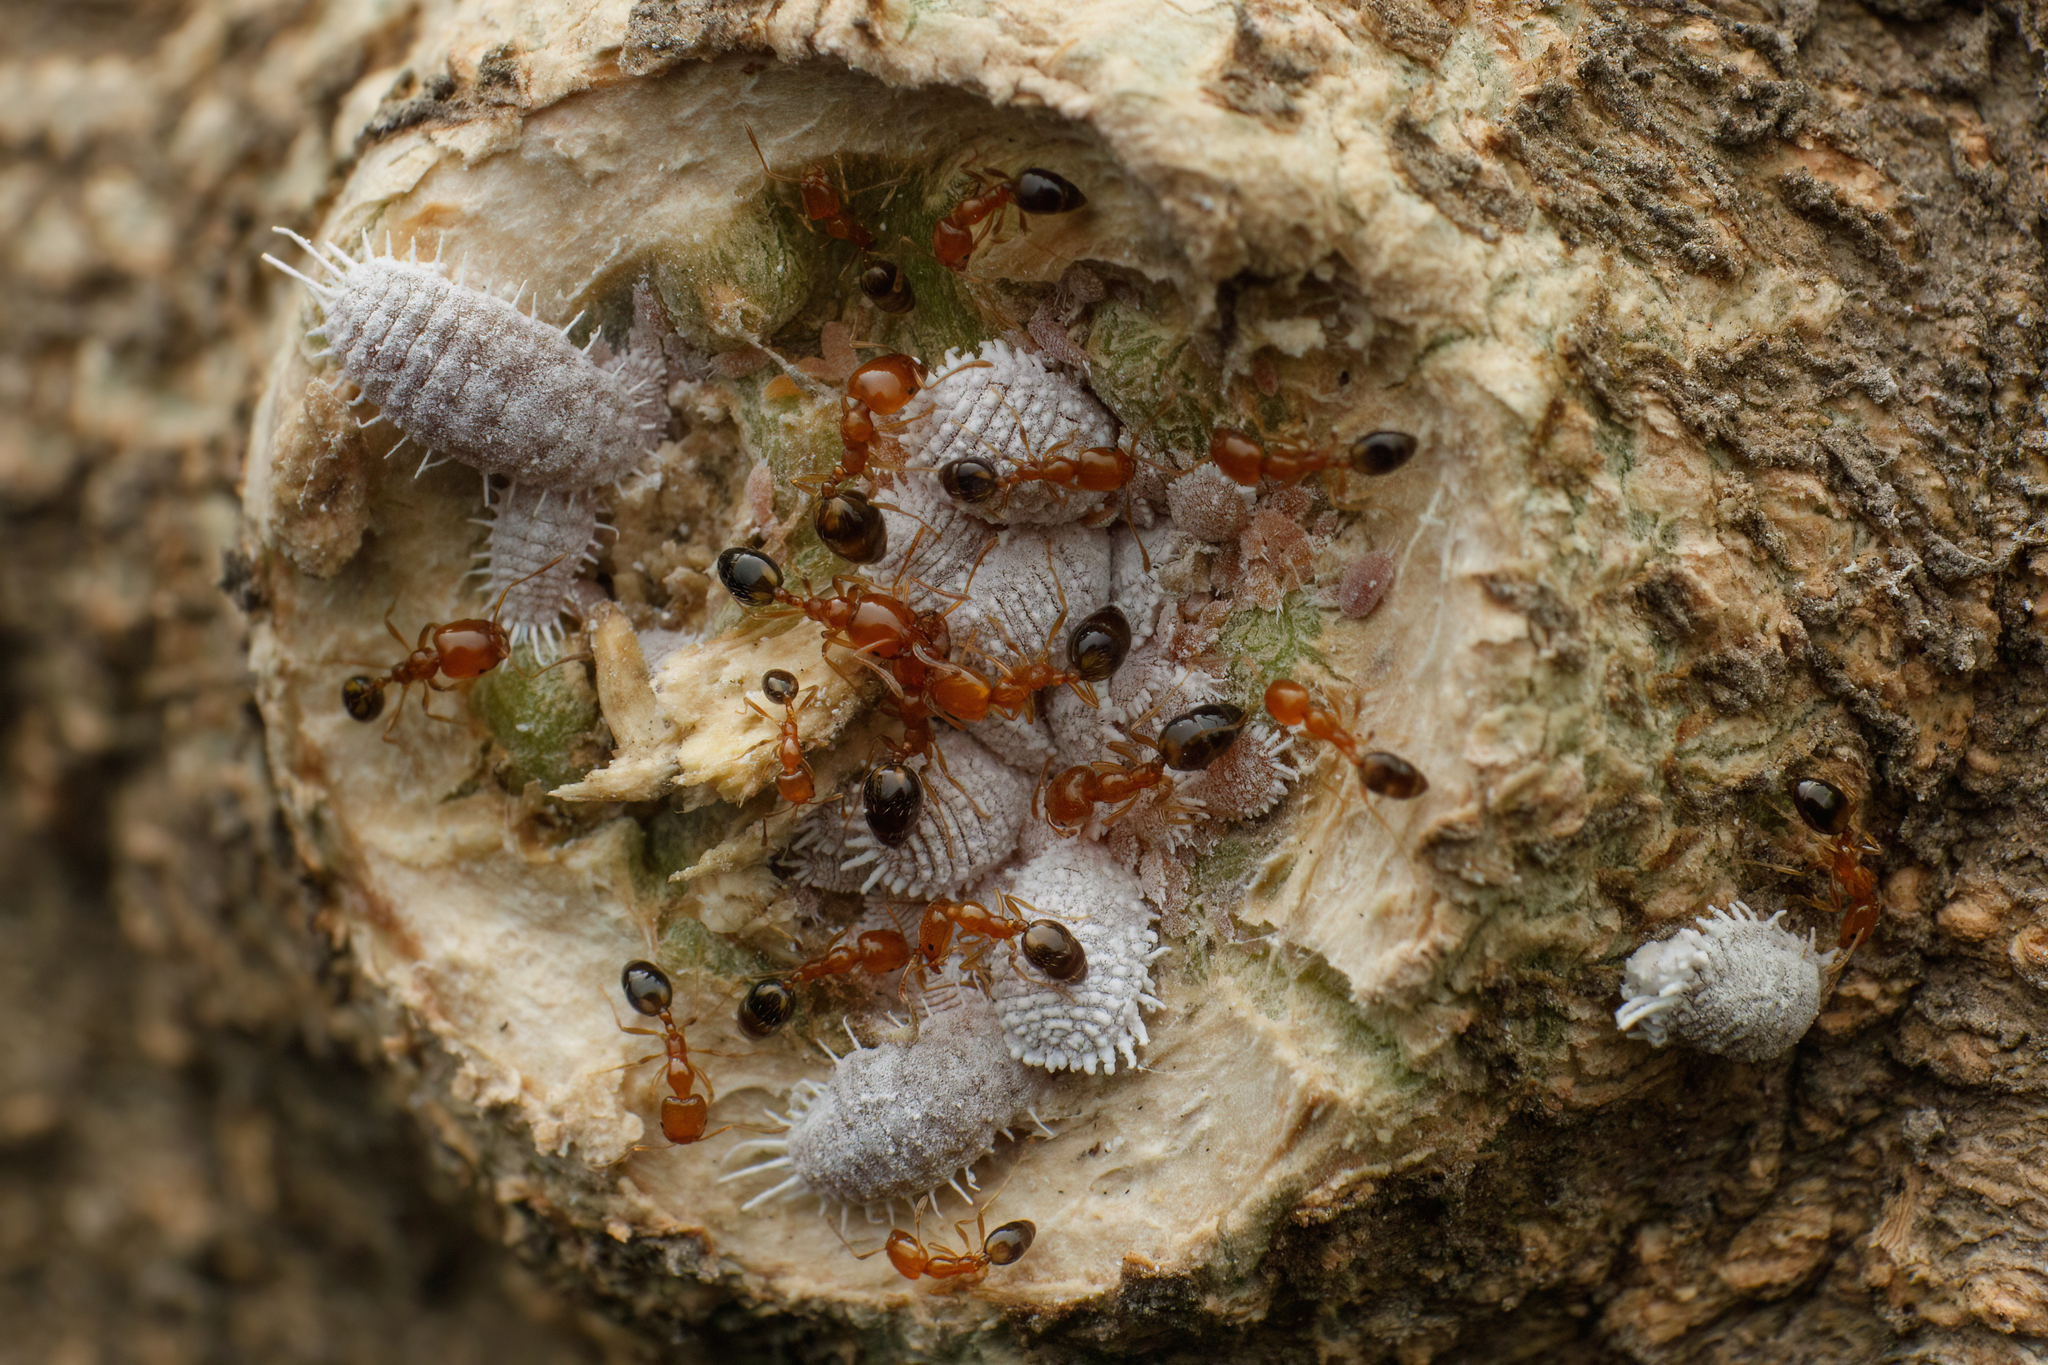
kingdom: Animalia
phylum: Arthropoda
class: Insecta
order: Hymenoptera
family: Formicidae
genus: Monomorium
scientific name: Monomorium destructor
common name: Destructive trailing ant
